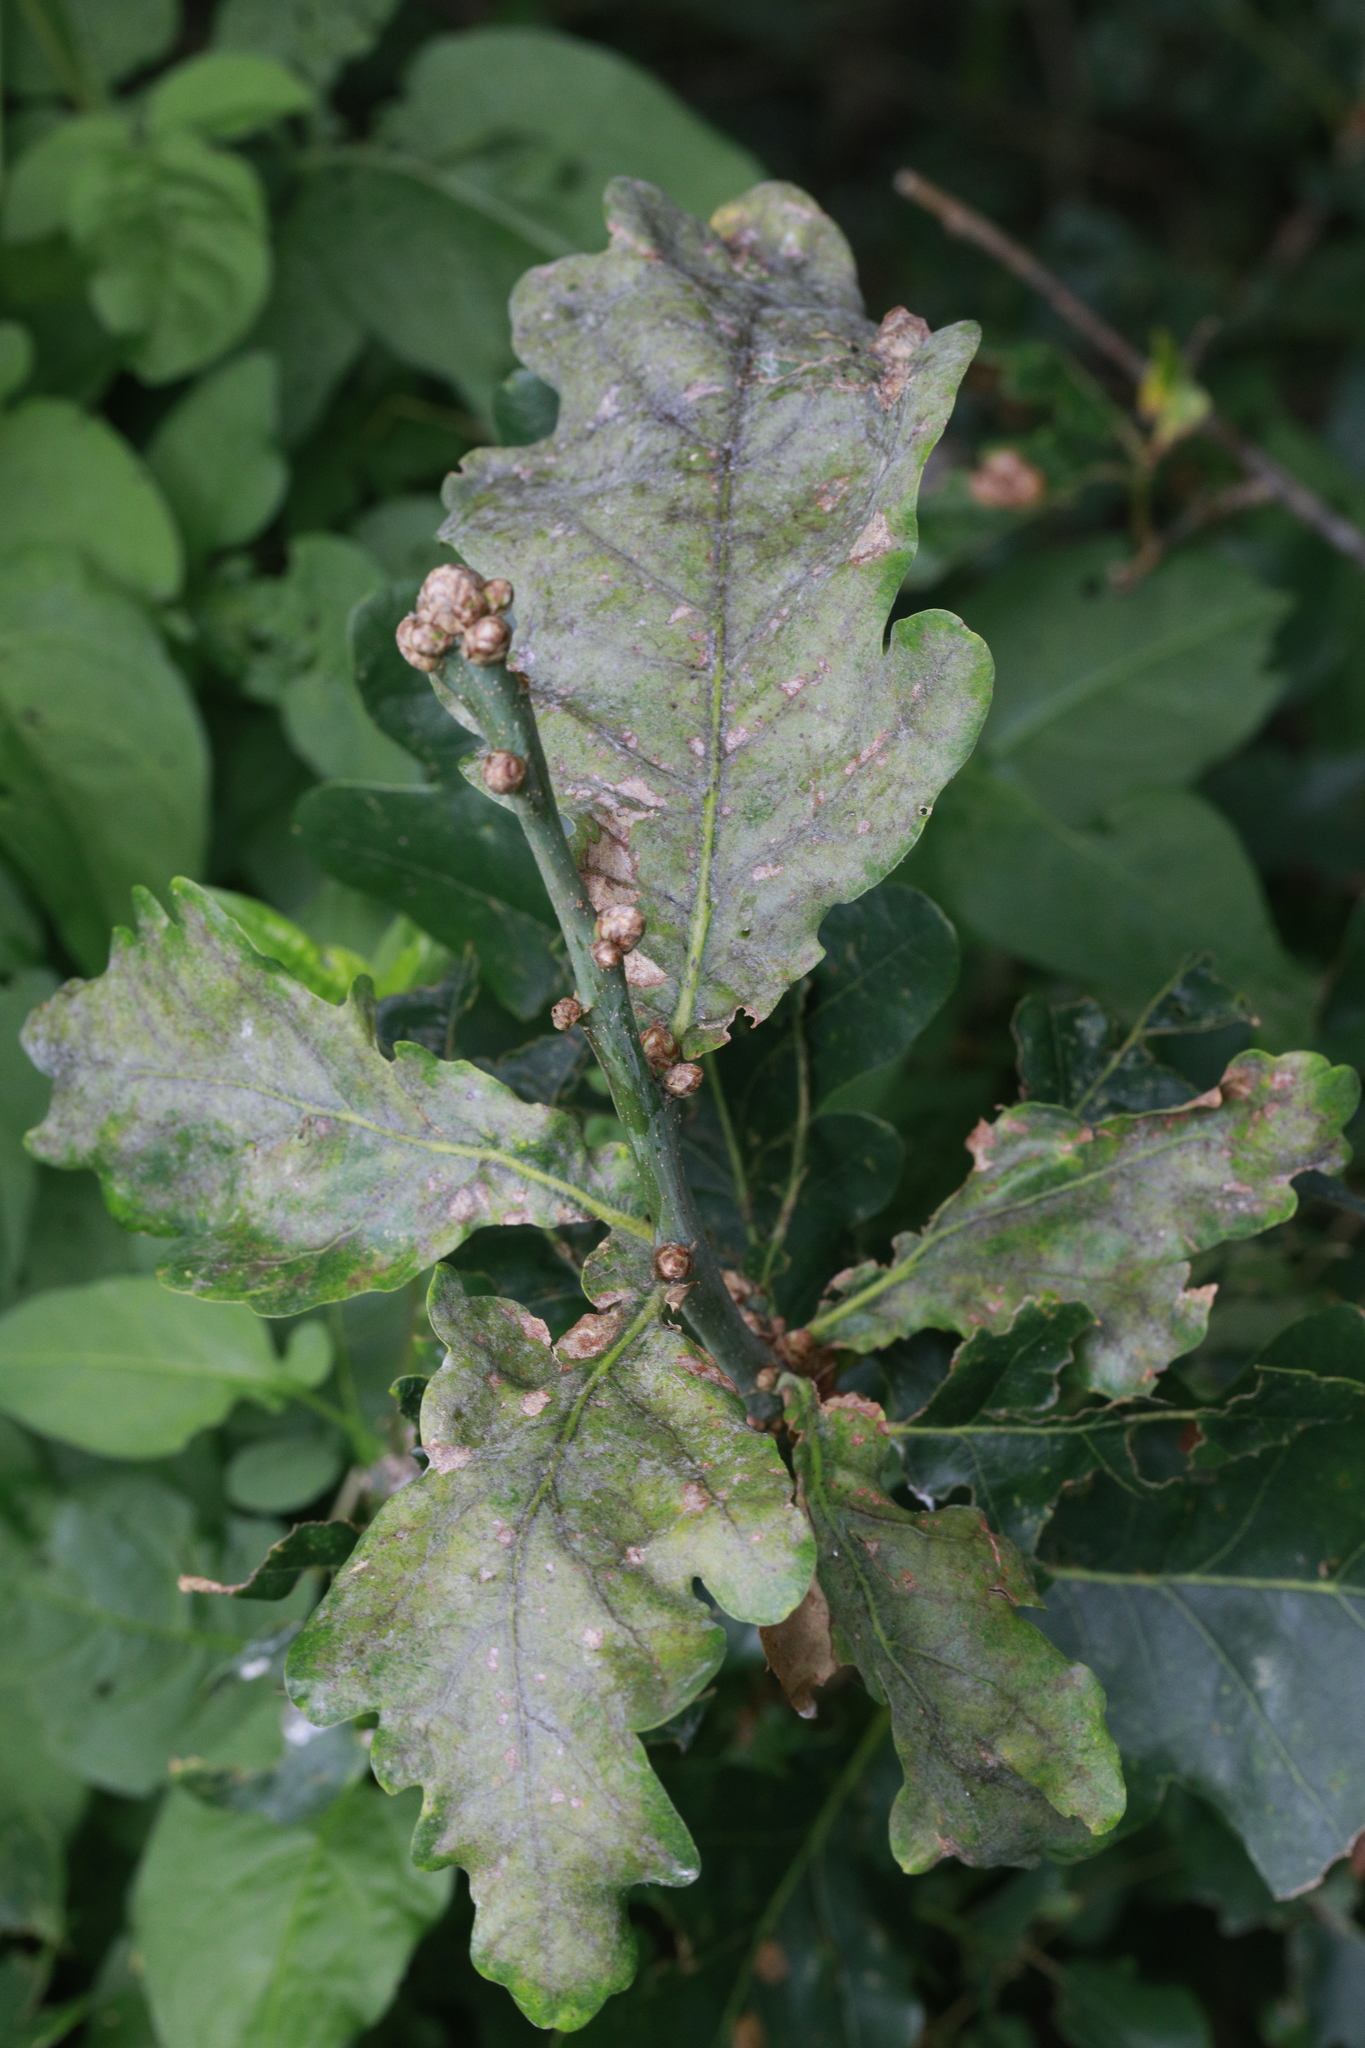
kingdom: Fungi
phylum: Ascomycota
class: Leotiomycetes
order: Helotiales
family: Erysiphaceae
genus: Erysiphe
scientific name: Erysiphe alphitoides
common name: Oak mildew
